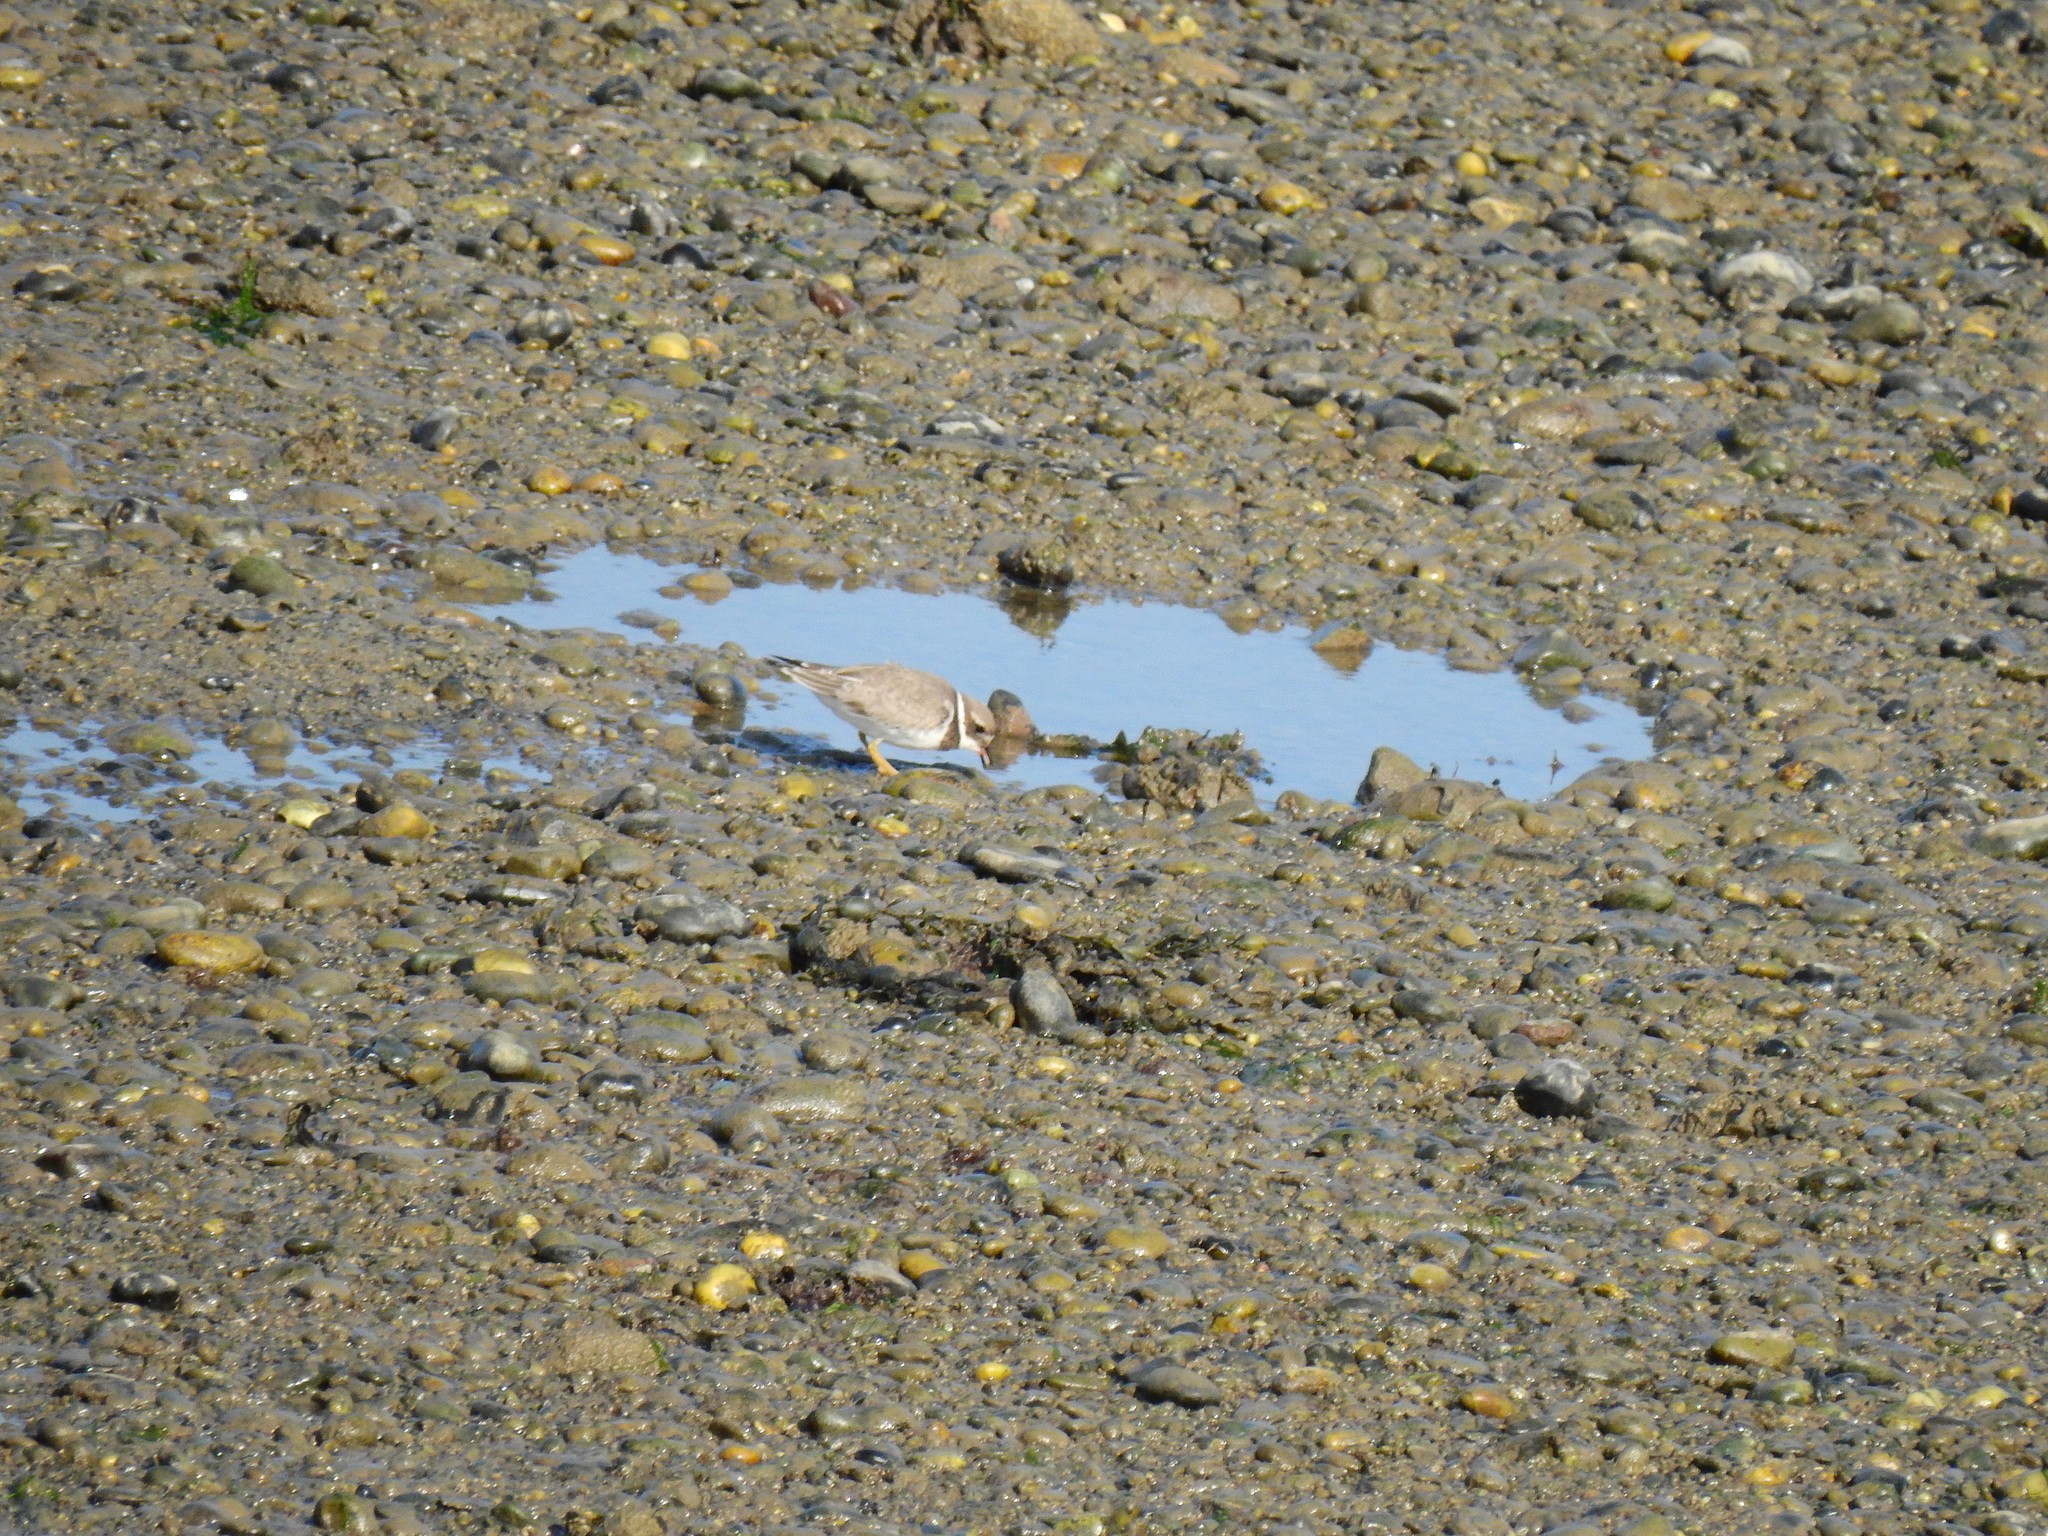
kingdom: Animalia
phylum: Chordata
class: Aves
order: Charadriiformes
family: Charadriidae
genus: Charadrius
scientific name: Charadrius hiaticula
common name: Common ringed plover
